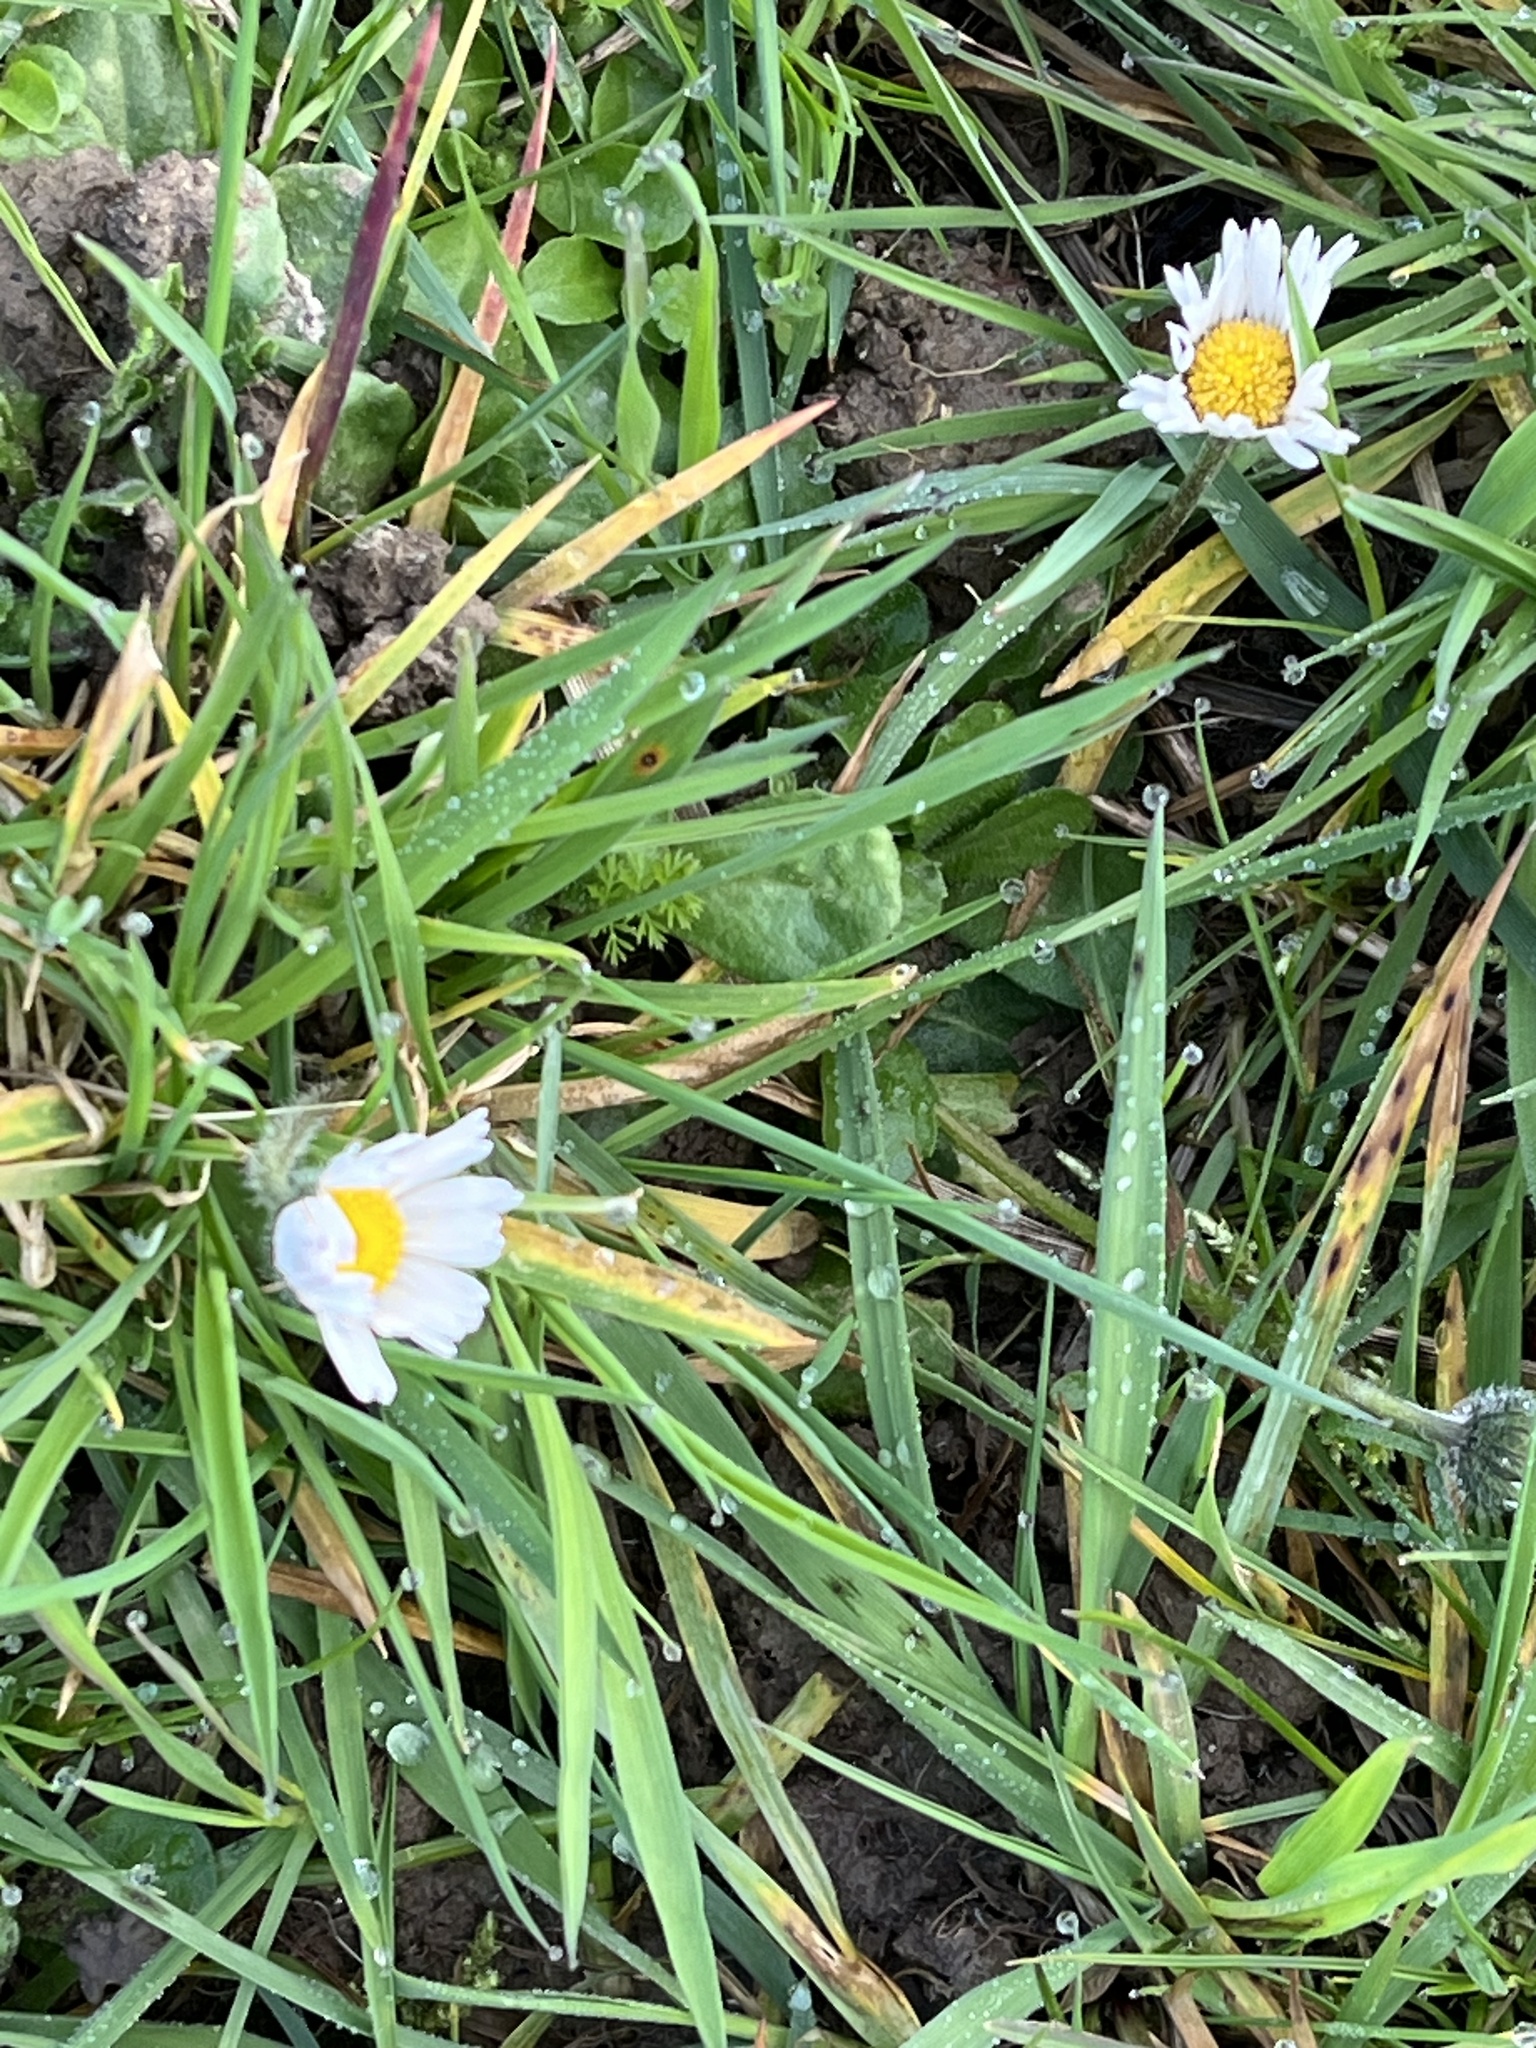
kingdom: Plantae
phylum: Tracheophyta
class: Magnoliopsida
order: Asterales
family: Asteraceae
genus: Bellis
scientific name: Bellis perennis
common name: Lawndaisy
